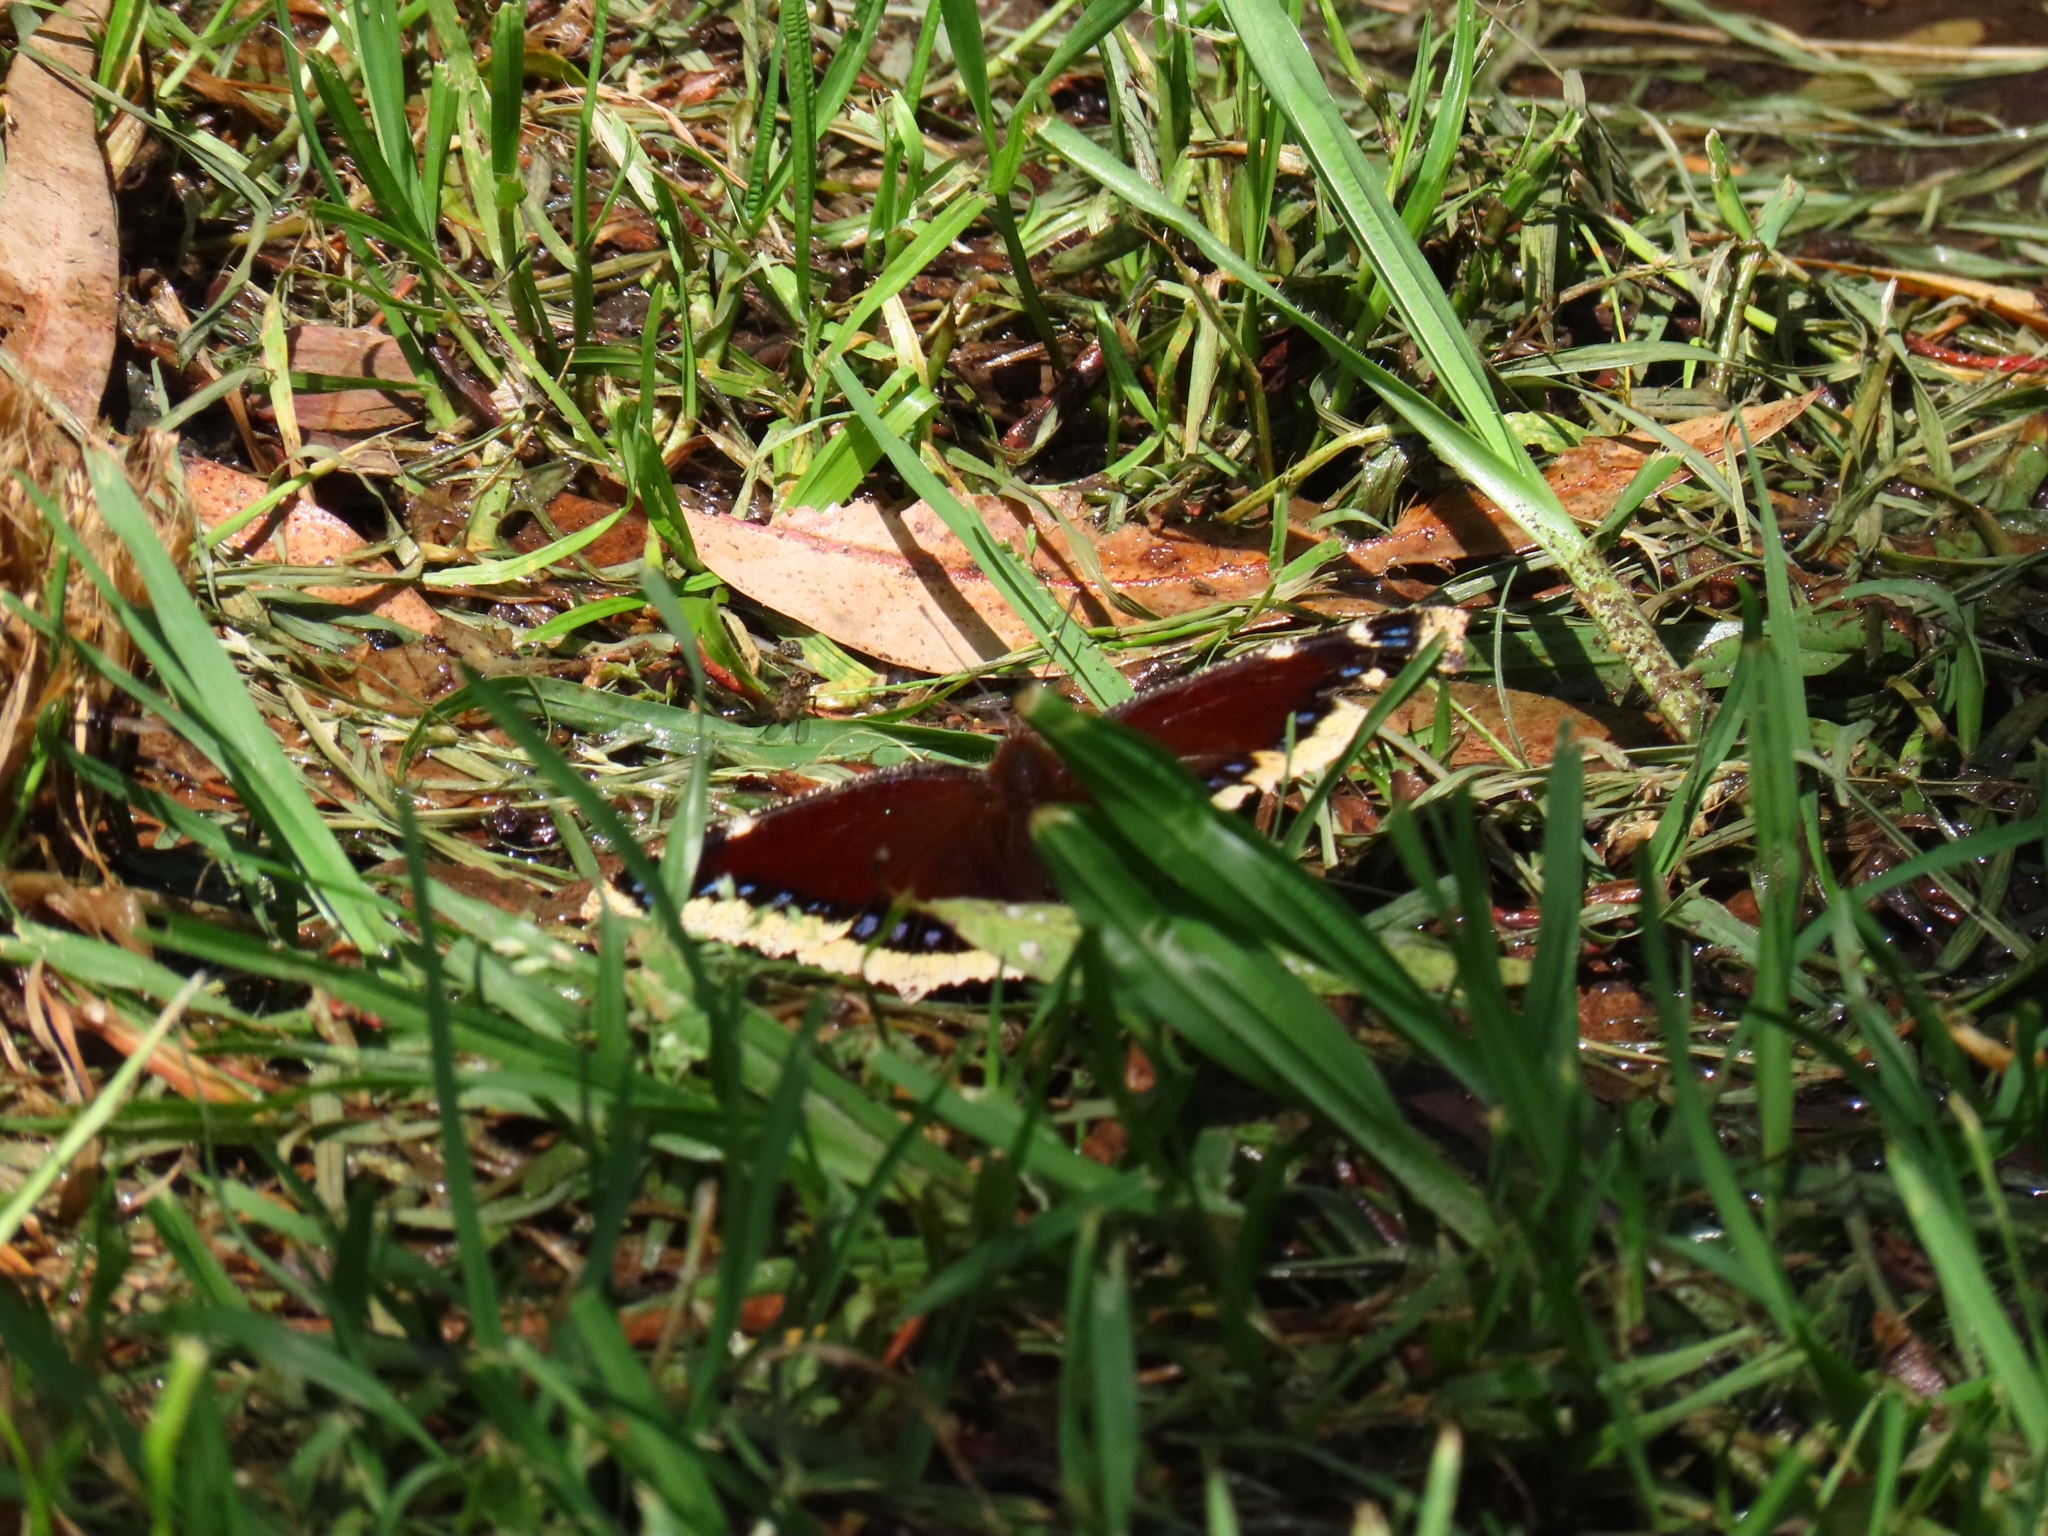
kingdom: Animalia
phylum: Arthropoda
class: Insecta
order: Lepidoptera
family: Nymphalidae
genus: Nymphalis
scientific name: Nymphalis antiopa
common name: Camberwell beauty
